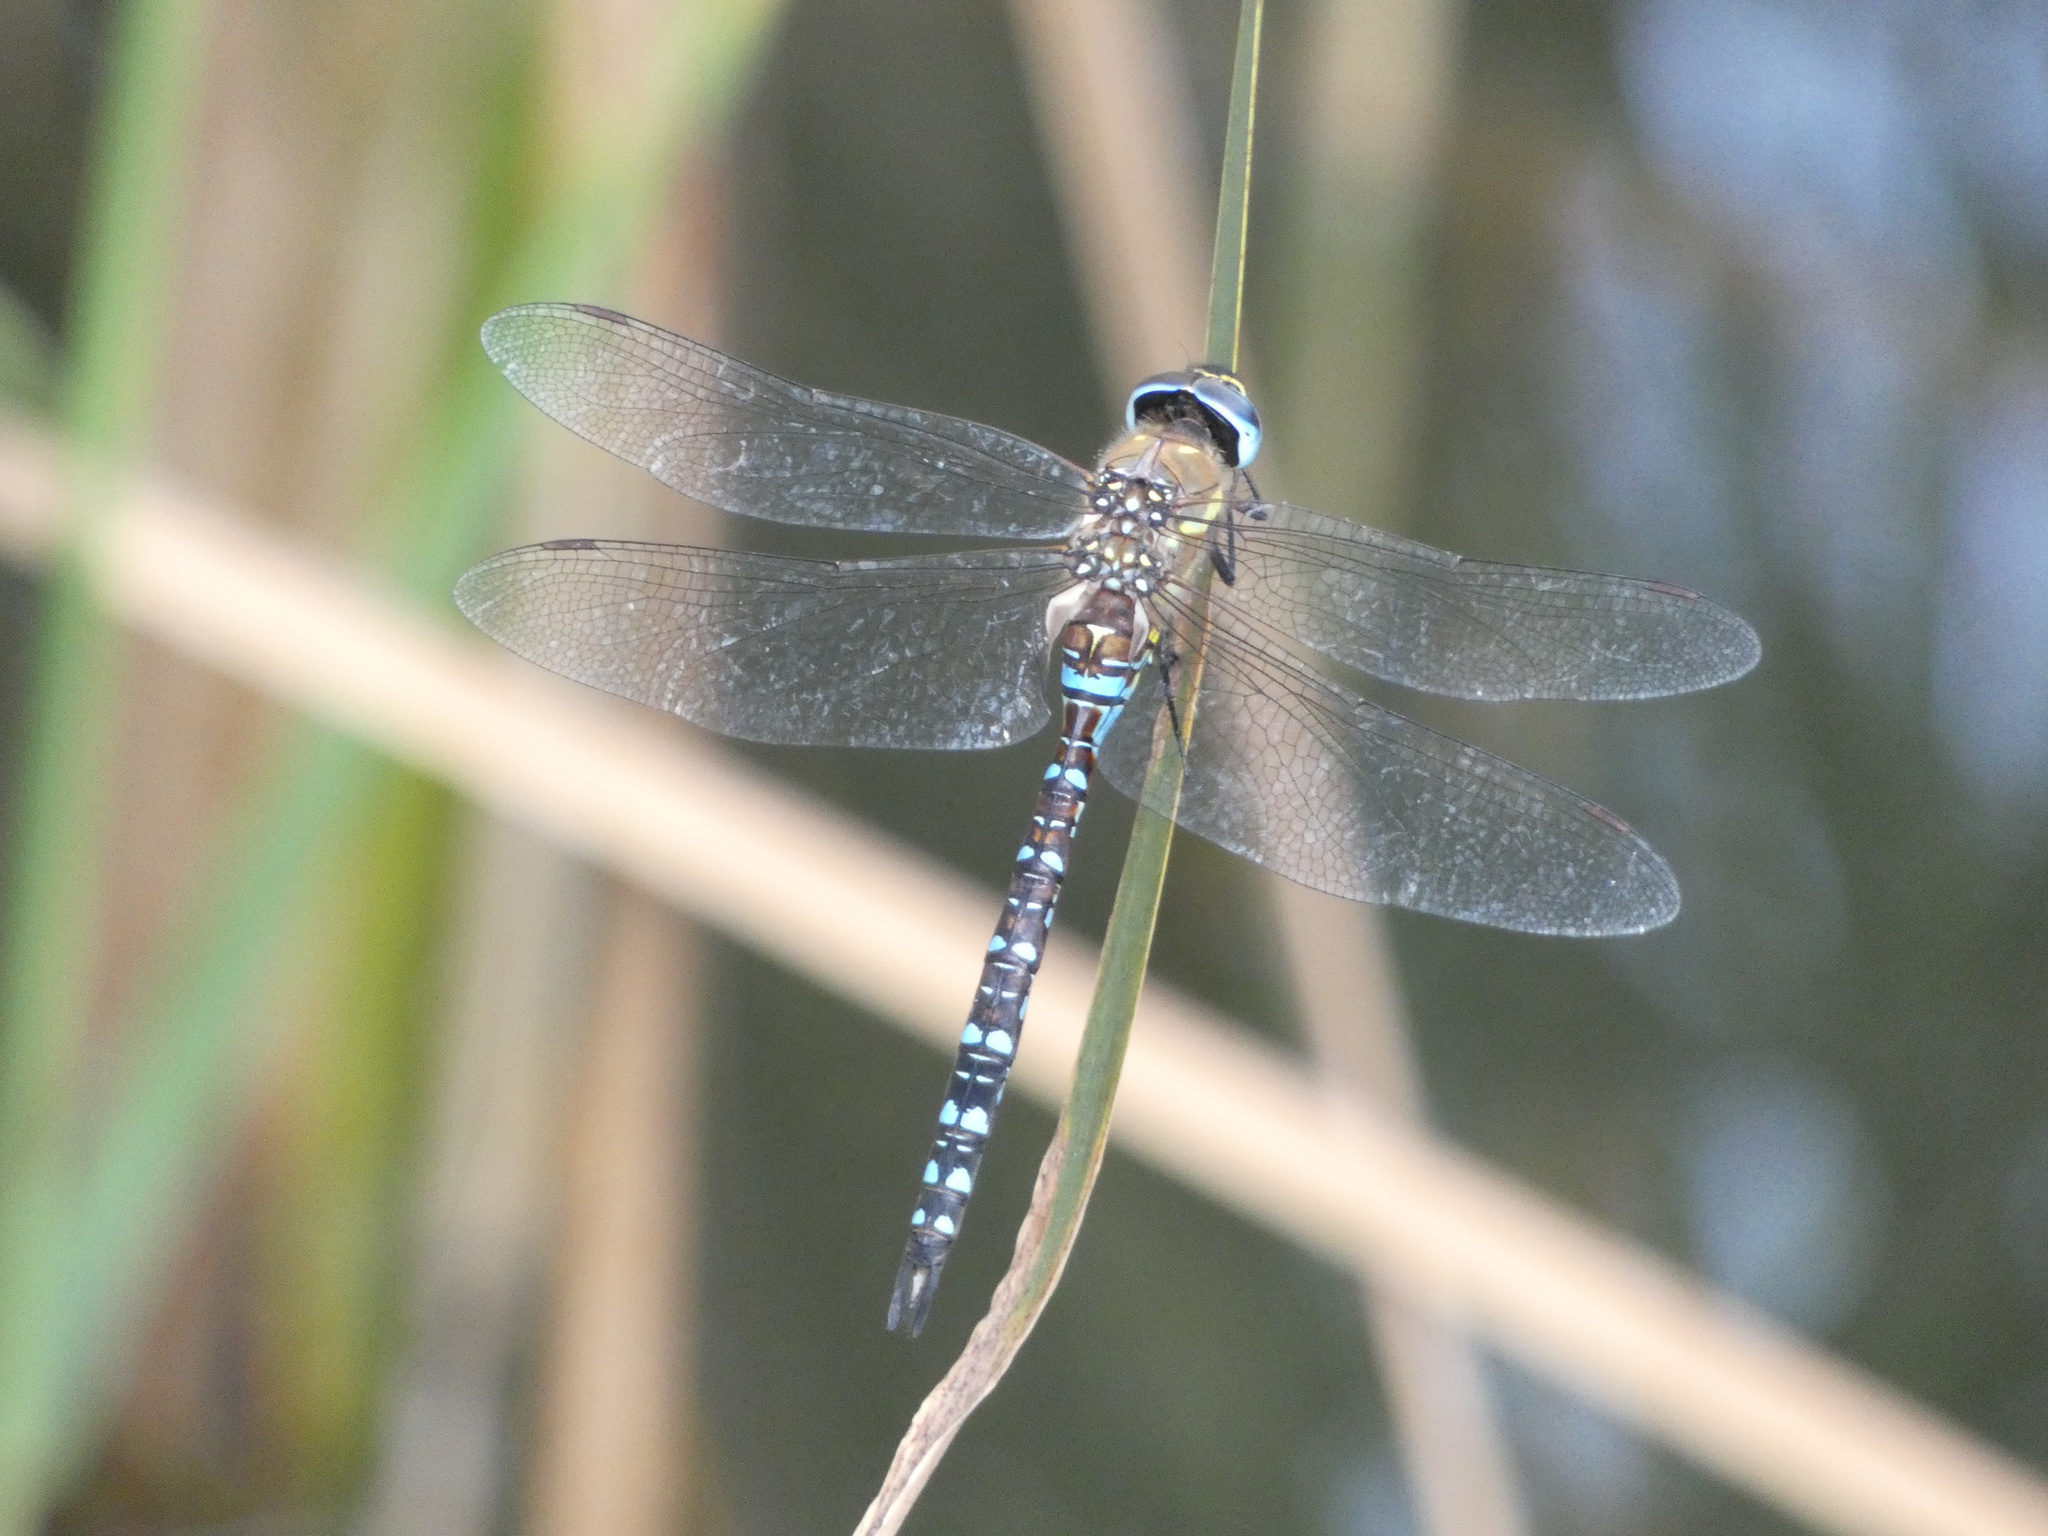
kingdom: Animalia
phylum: Arthropoda
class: Insecta
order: Odonata
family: Aeshnidae
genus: Aeshna
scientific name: Aeshna mixta
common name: Migrant hawker
